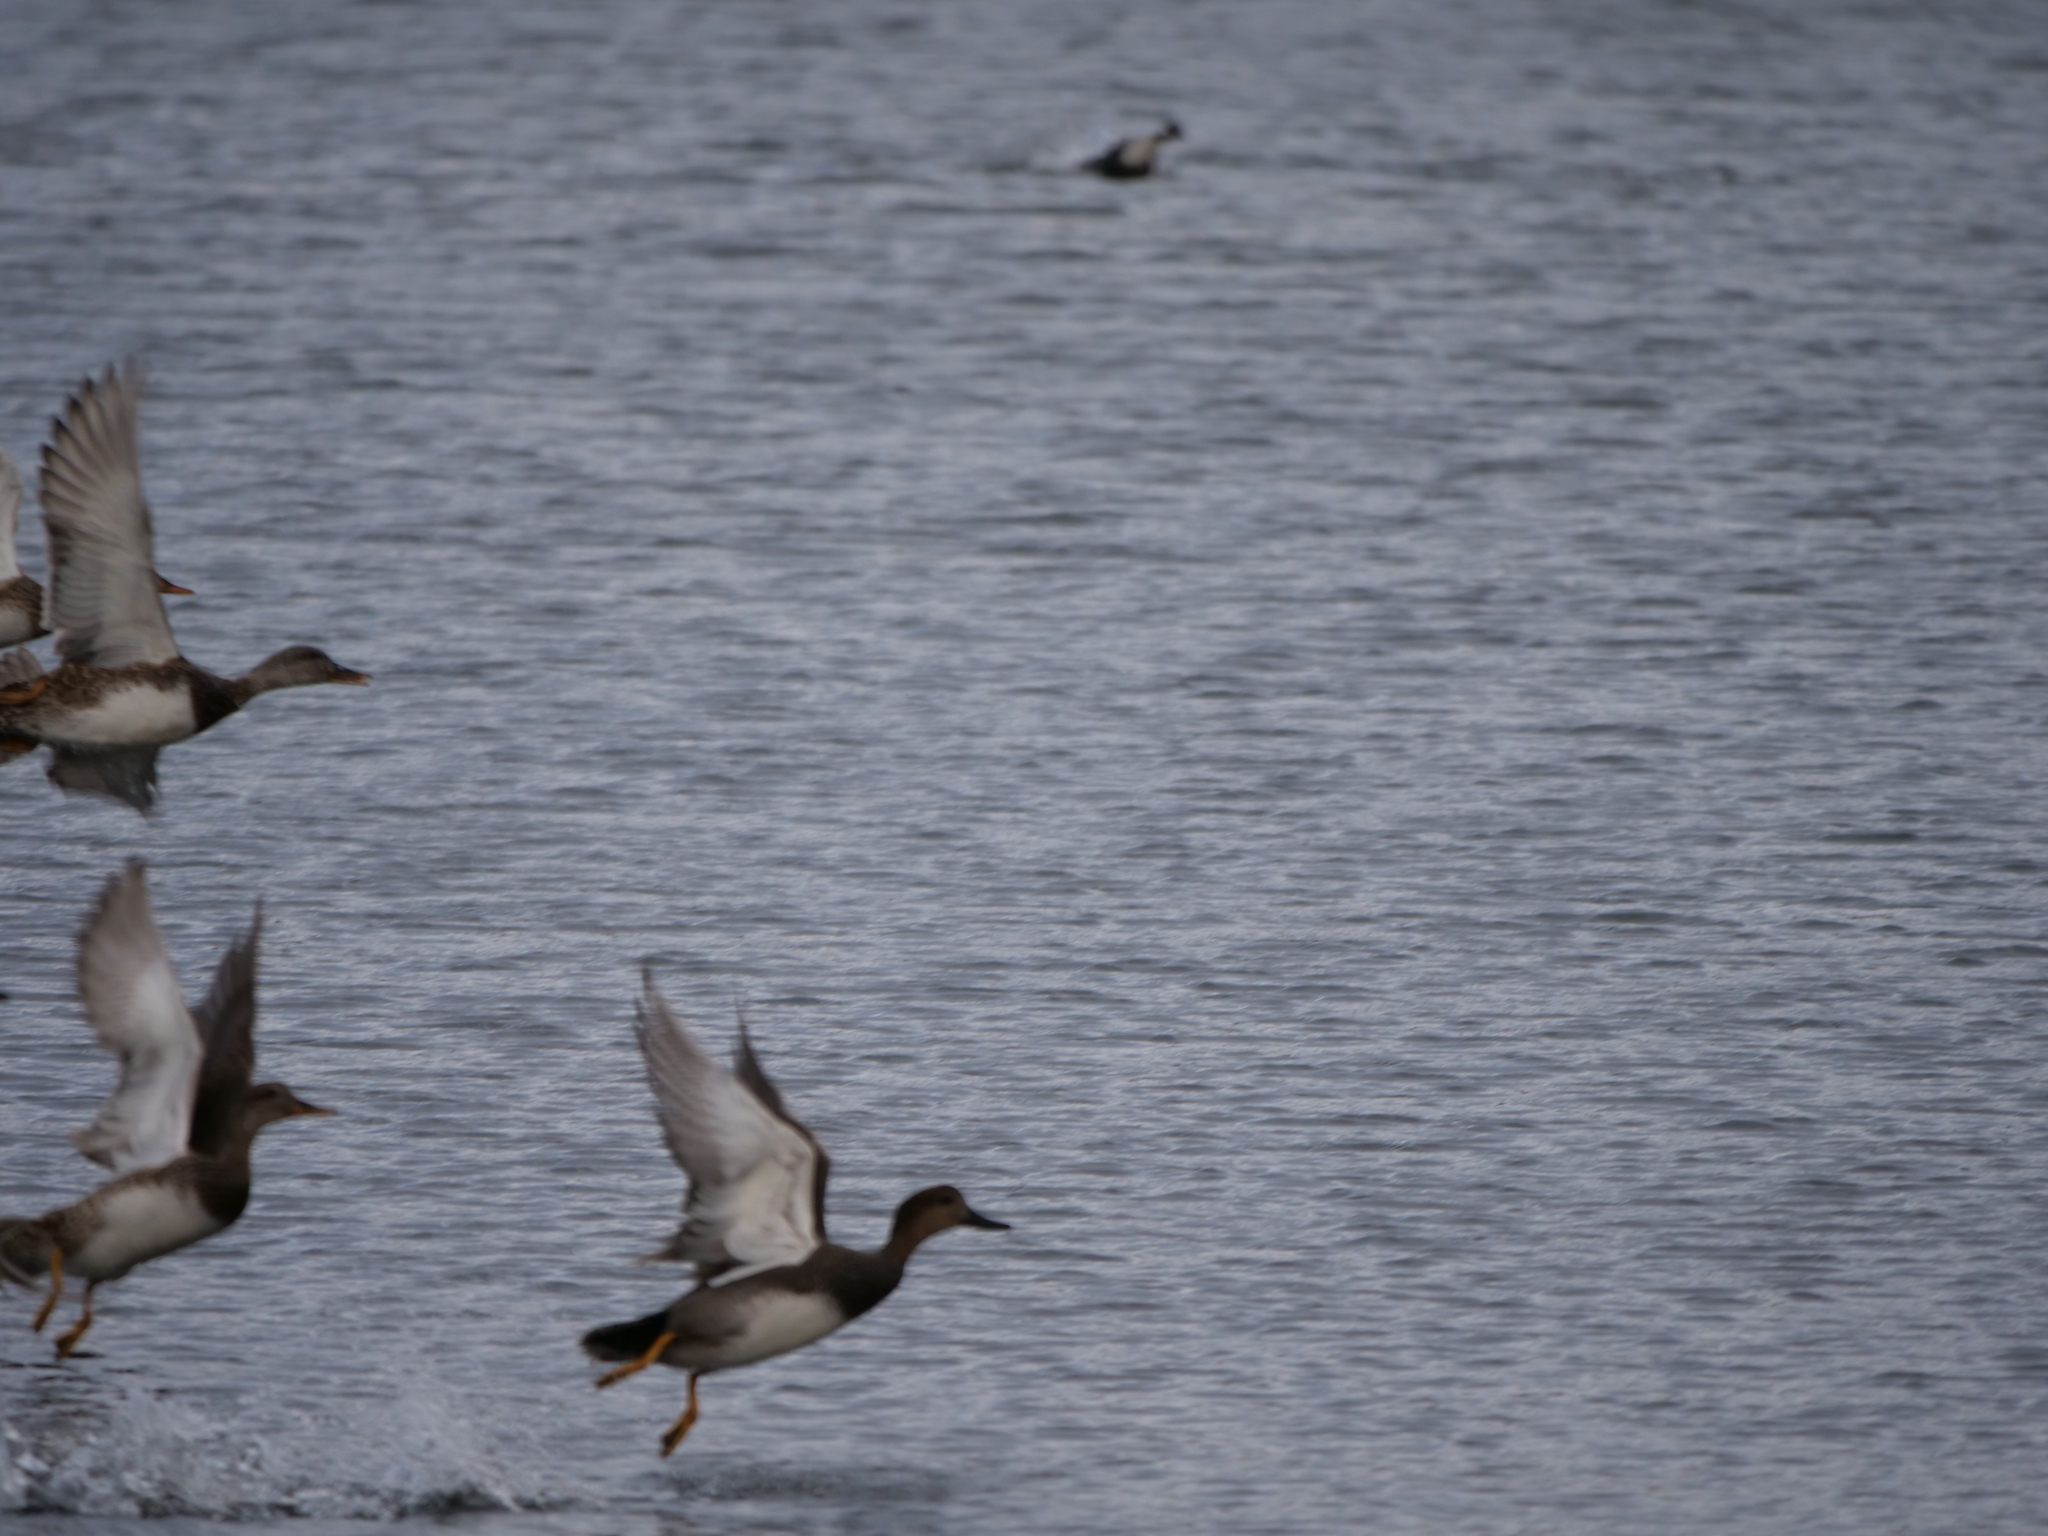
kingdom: Animalia
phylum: Chordata
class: Aves
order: Anseriformes
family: Anatidae
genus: Mareca
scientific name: Mareca strepera
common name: Gadwall
